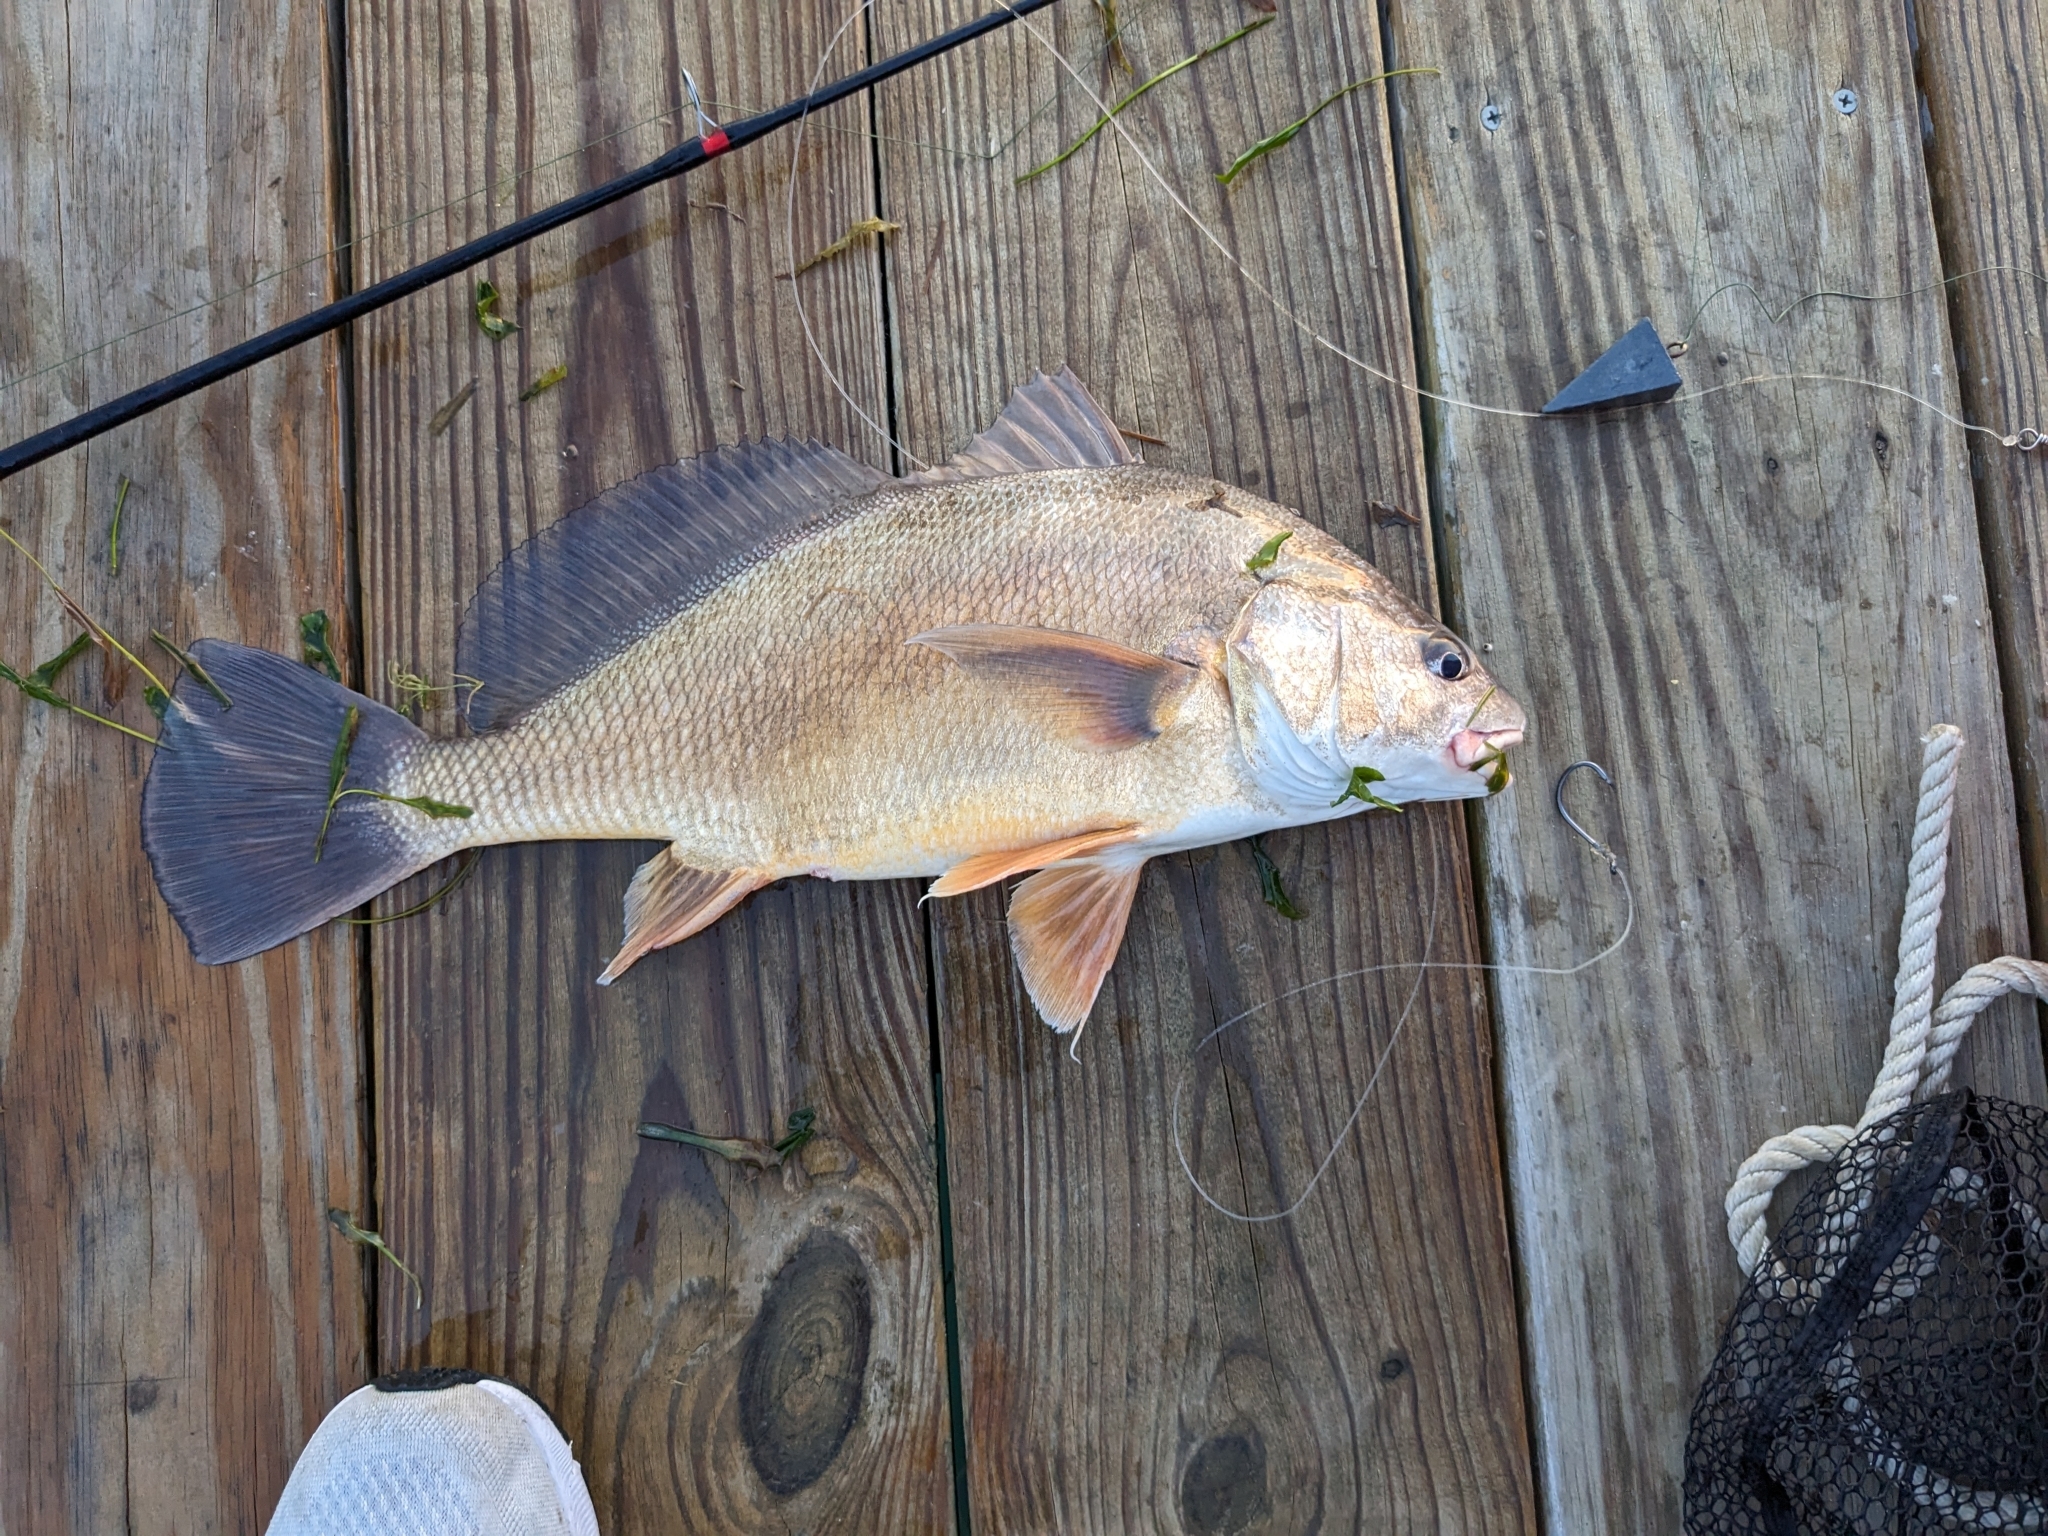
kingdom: Animalia
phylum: Chordata
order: Perciformes
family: Sciaenidae
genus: Aplodinotus
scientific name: Aplodinotus grunniens
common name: Freshwater drum
